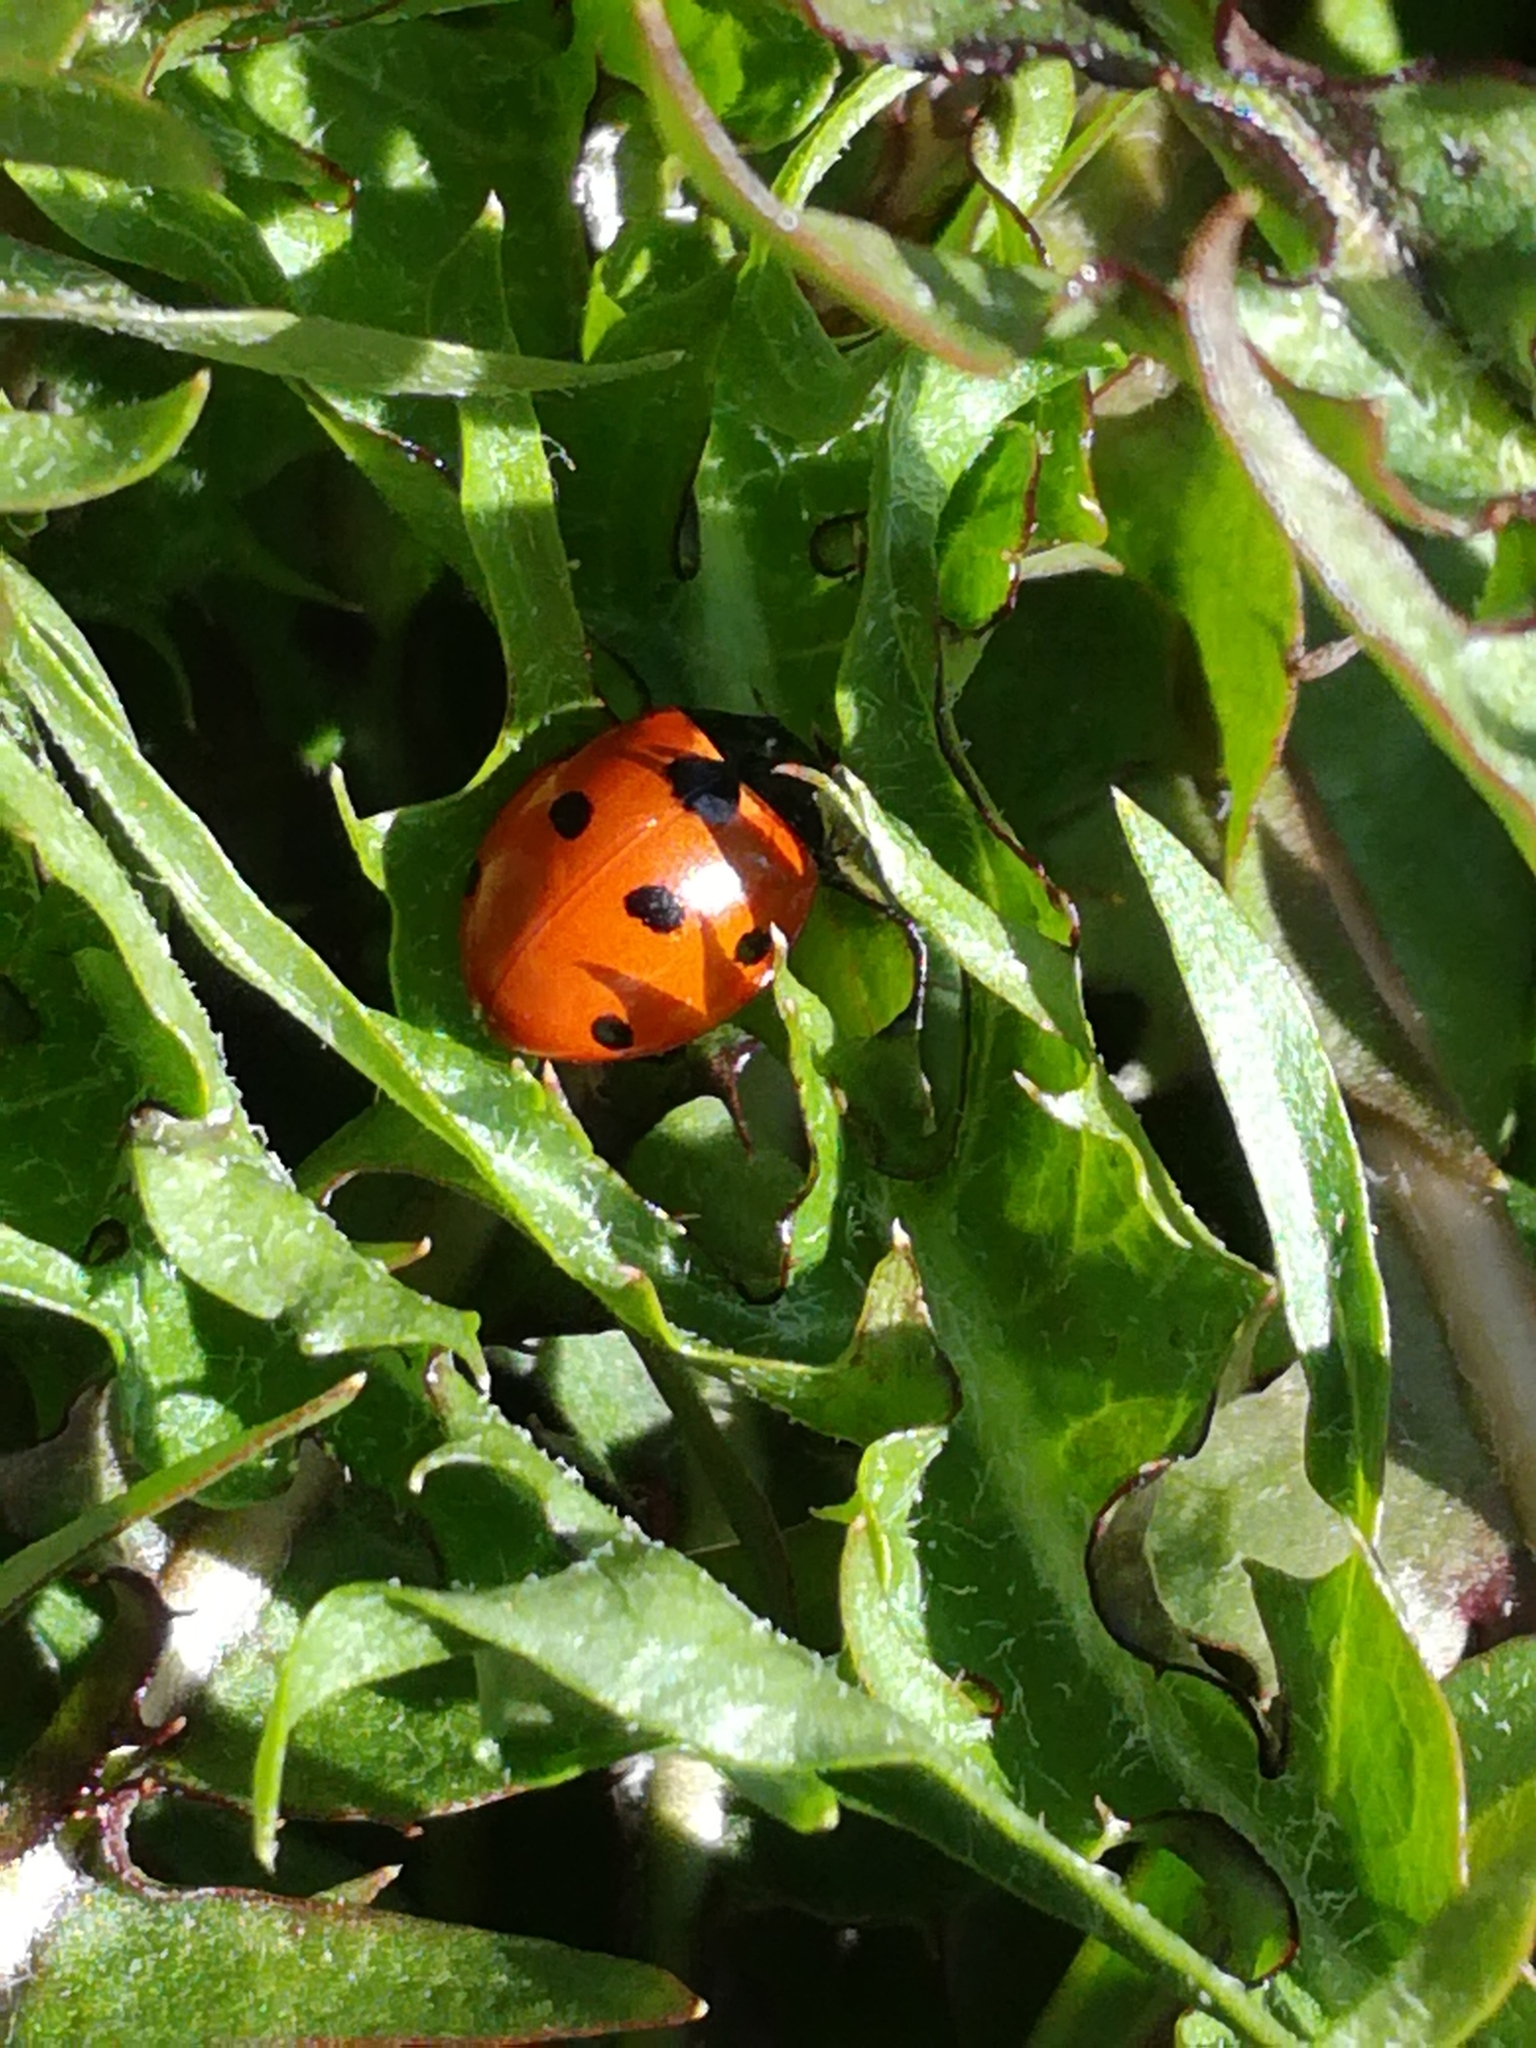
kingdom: Animalia
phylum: Arthropoda
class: Insecta
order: Coleoptera
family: Coccinellidae
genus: Coccinella
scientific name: Coccinella septempunctata
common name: Sevenspotted lady beetle
